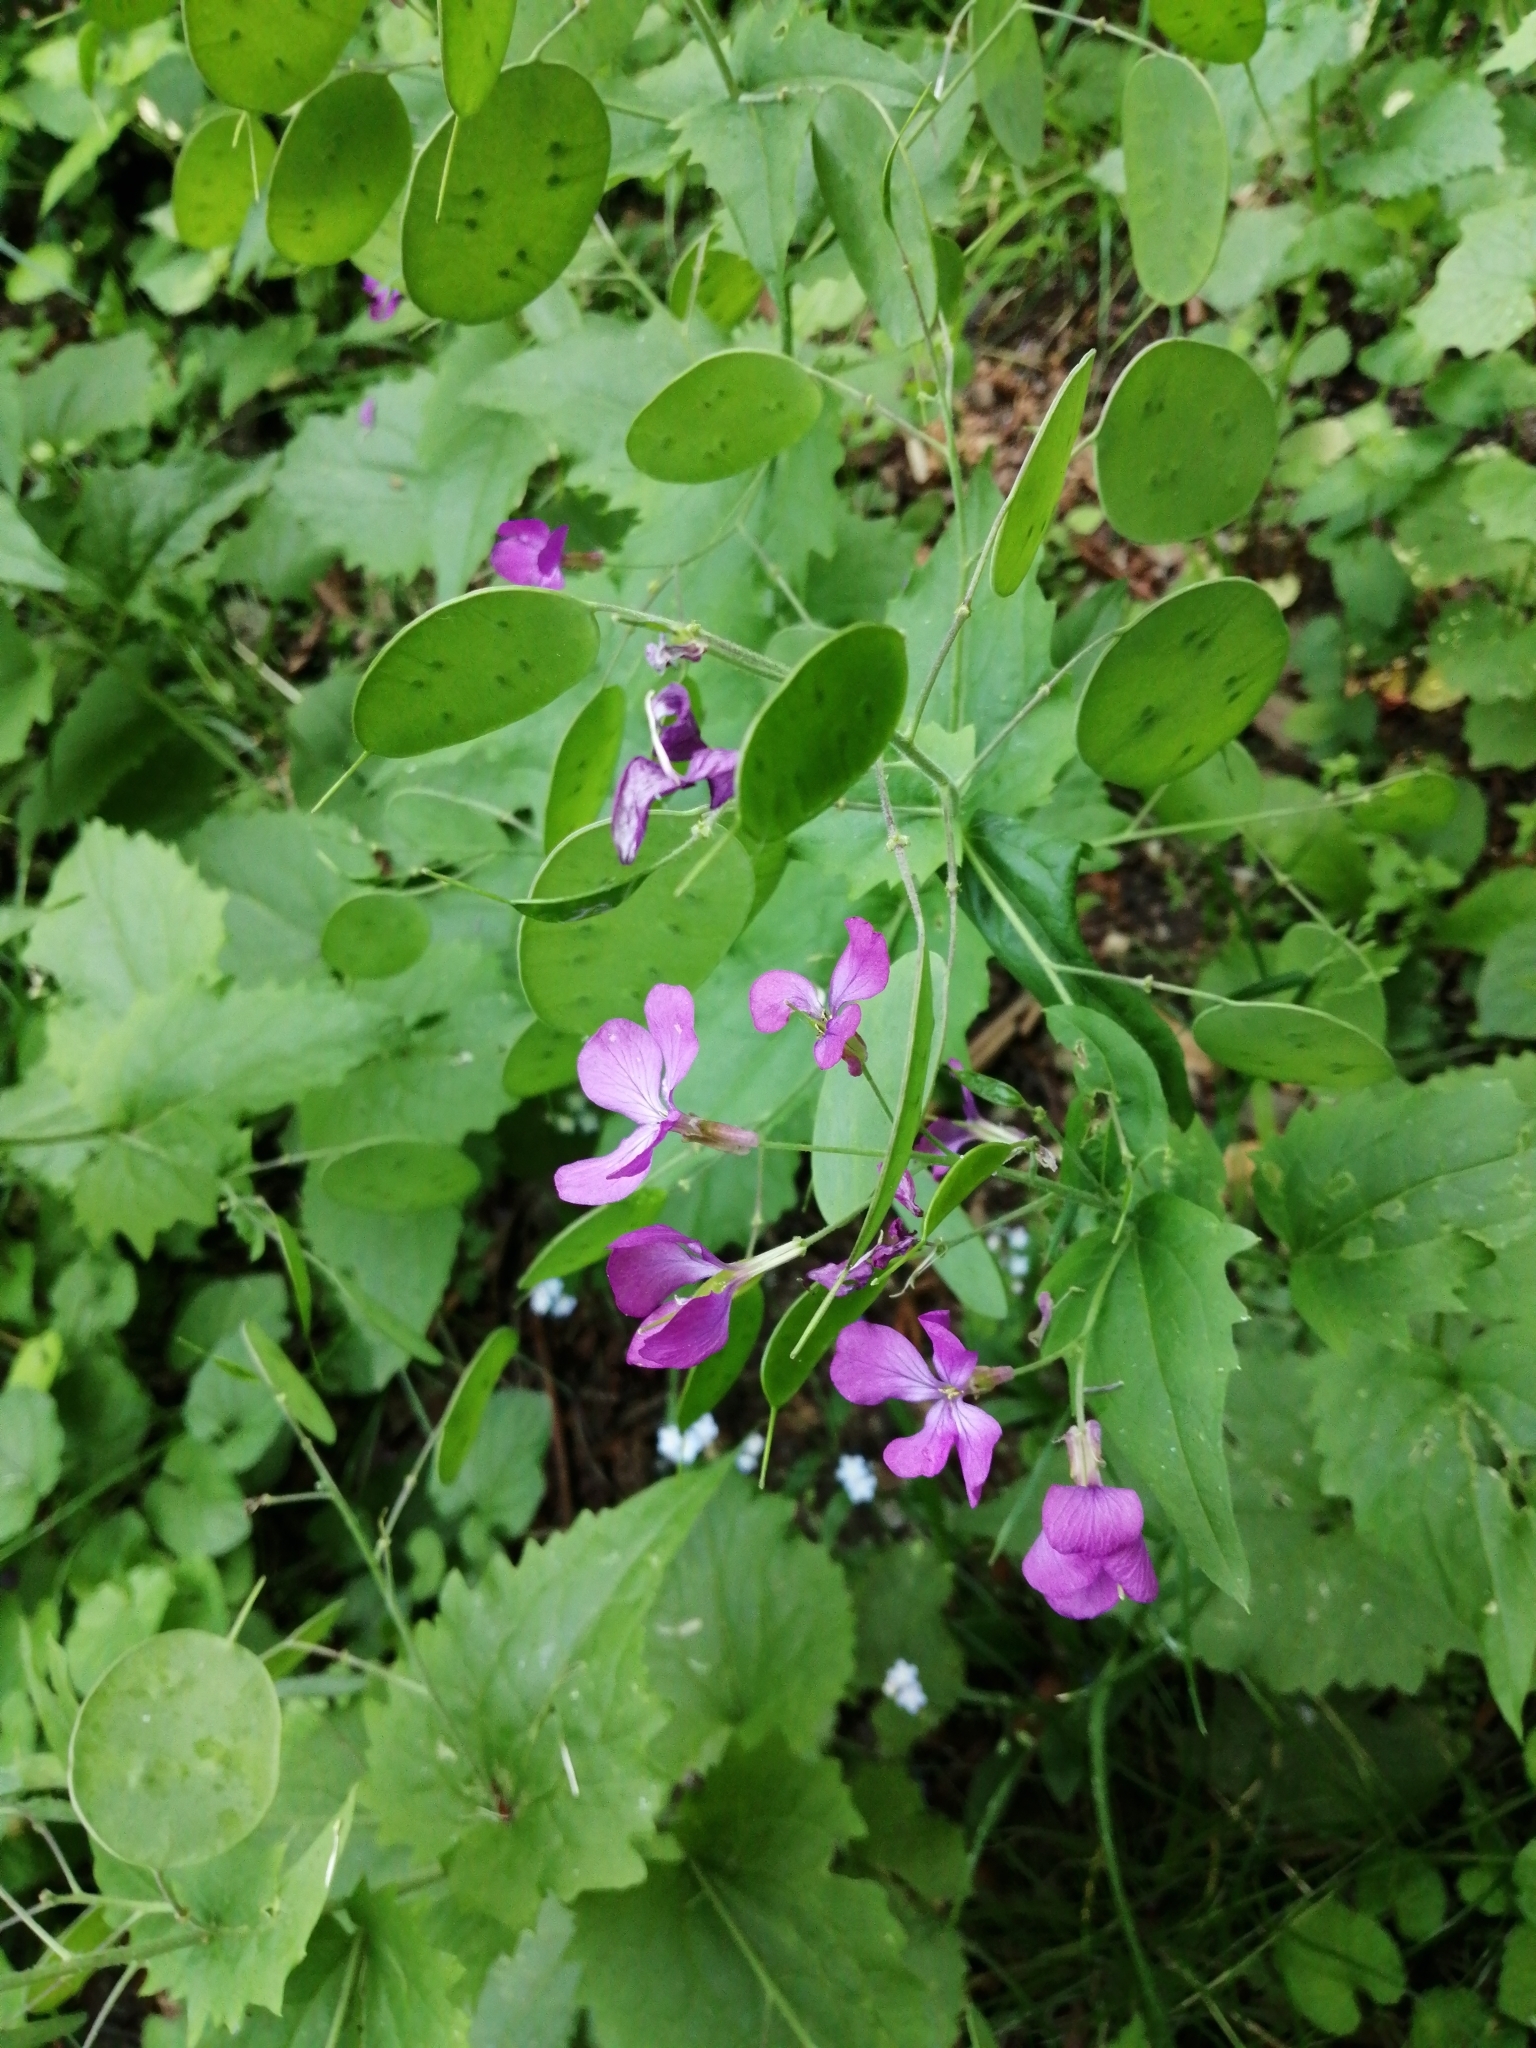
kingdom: Plantae
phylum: Tracheophyta
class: Magnoliopsida
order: Brassicales
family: Brassicaceae
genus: Lunaria
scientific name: Lunaria annua
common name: Honesty
